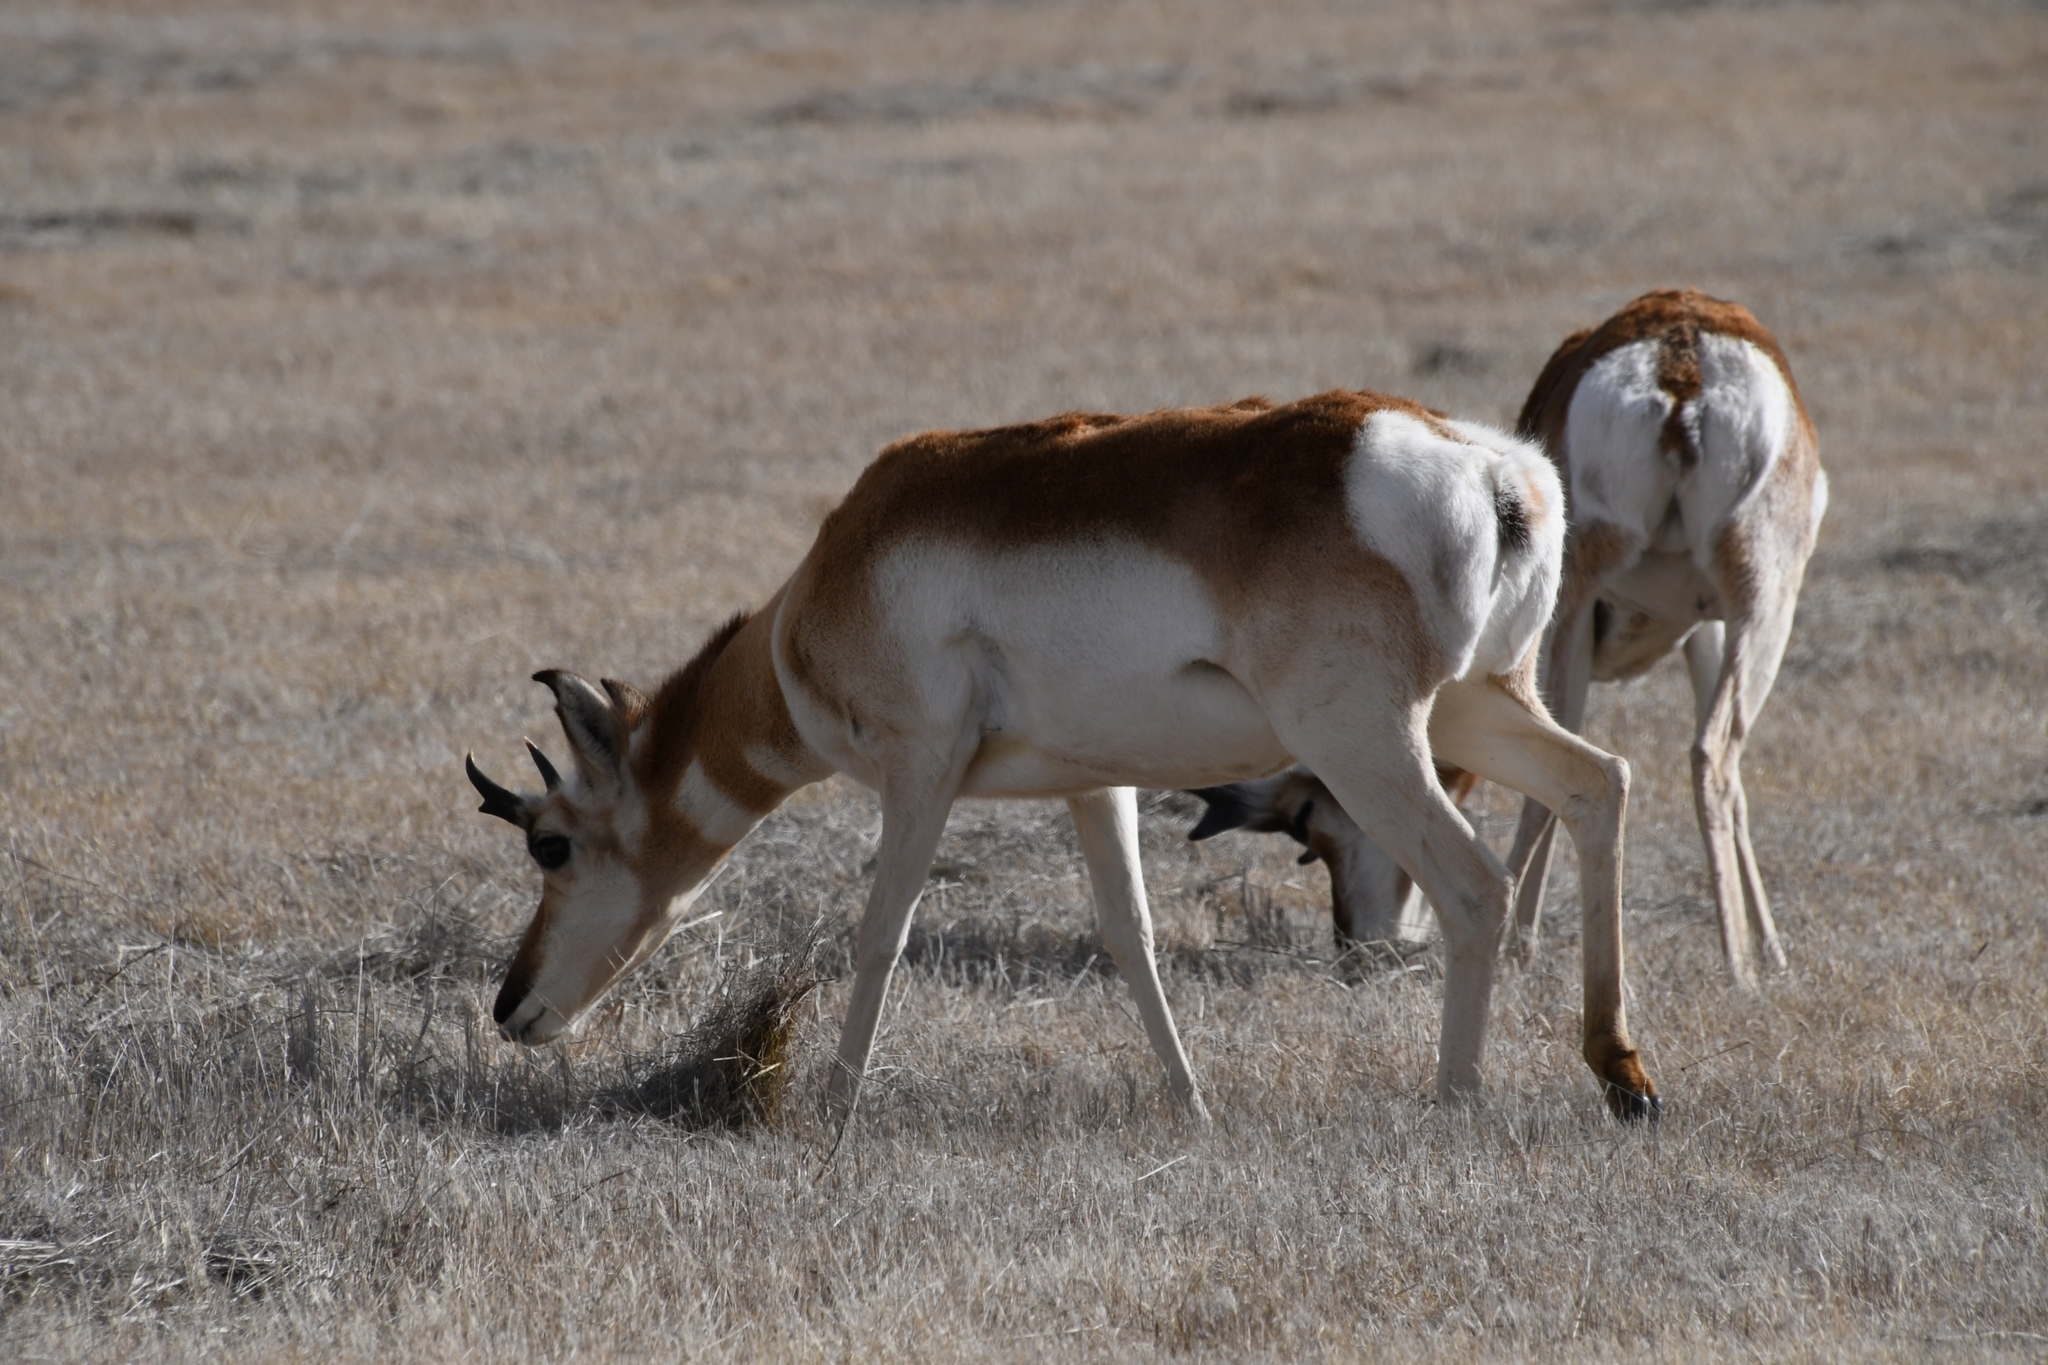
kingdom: Animalia
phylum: Chordata
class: Mammalia
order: Artiodactyla
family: Antilocapridae
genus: Antilocapra
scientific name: Antilocapra americana
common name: Pronghorn
